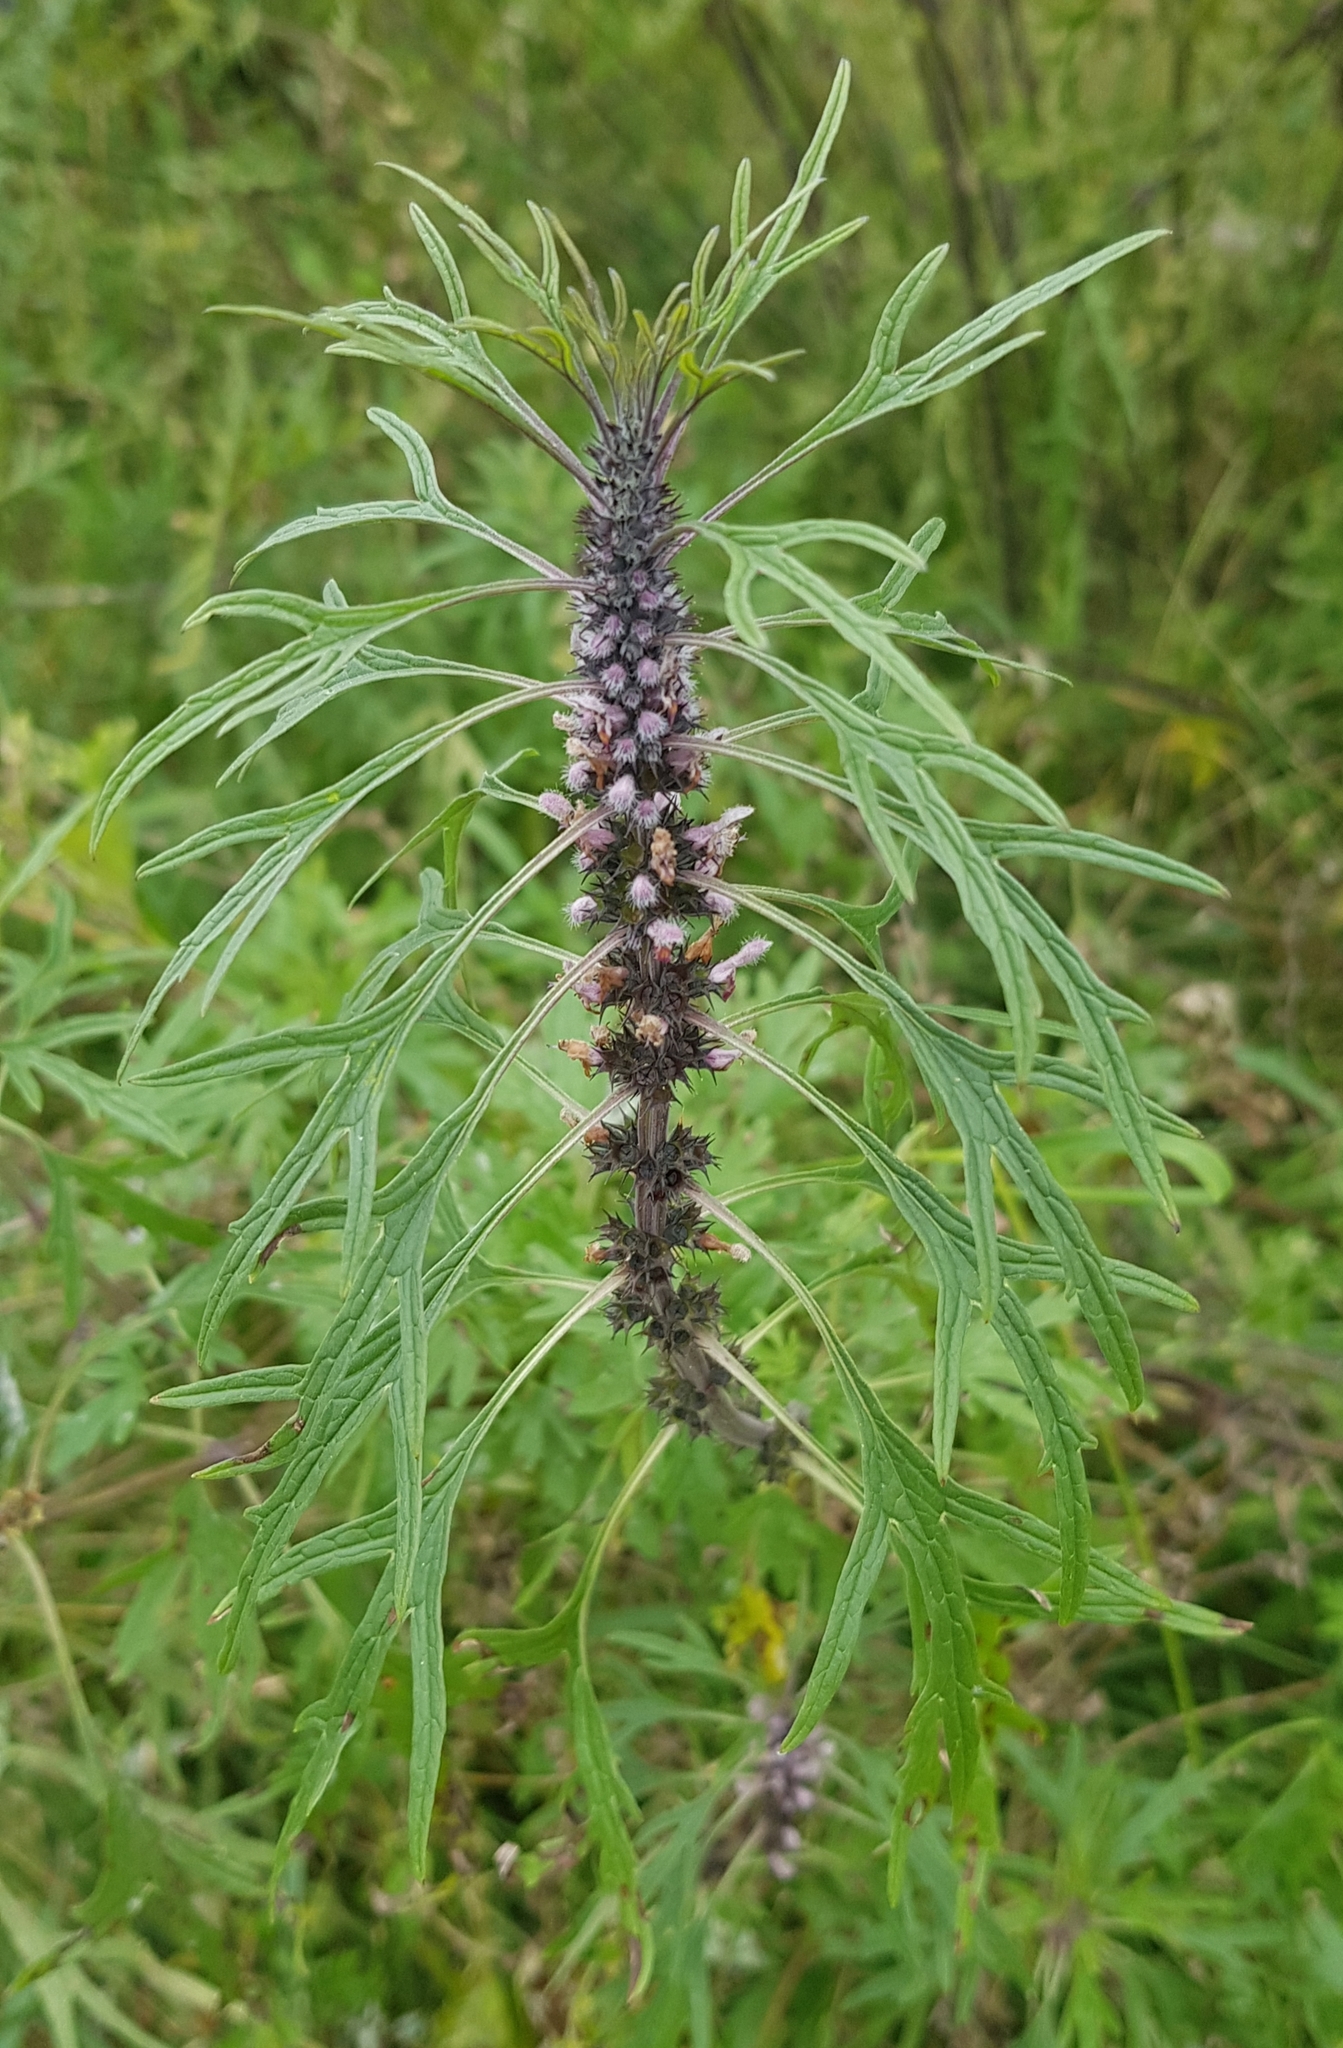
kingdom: Plantae
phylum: Tracheophyta
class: Magnoliopsida
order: Lamiales
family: Lamiaceae
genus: Leonurus
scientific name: Leonurus deminutus
